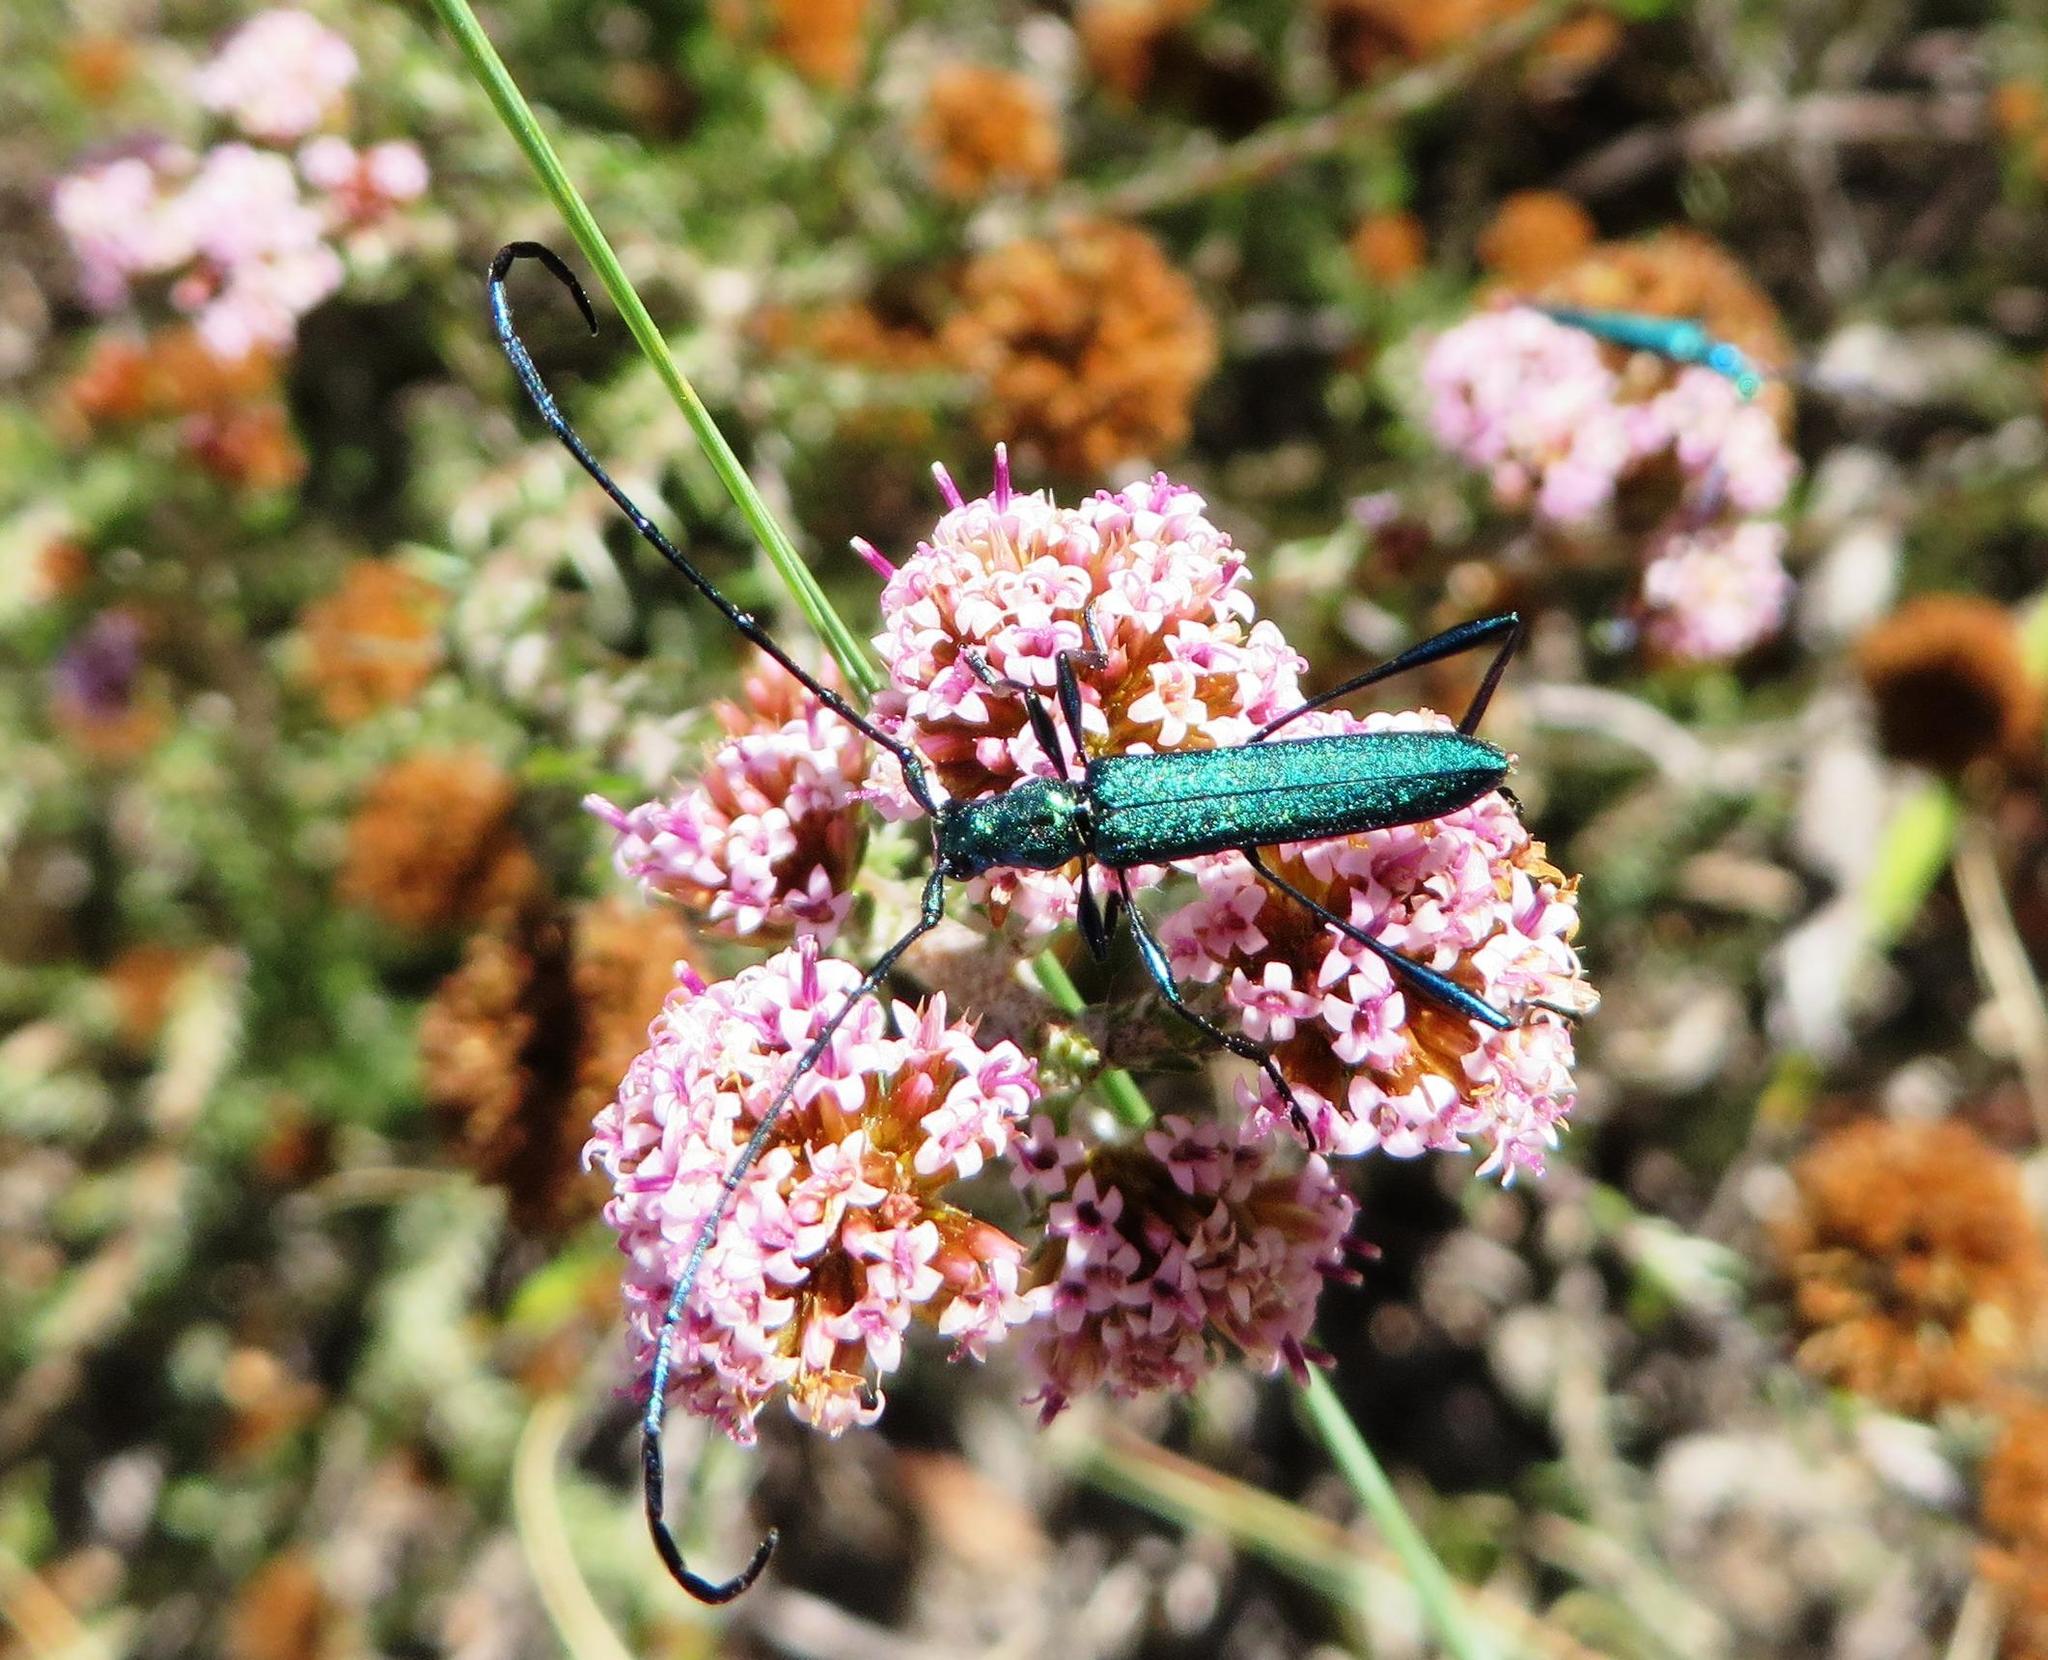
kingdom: Plantae
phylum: Tracheophyta
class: Magnoliopsida
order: Asterales
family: Asteraceae
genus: Stoebe
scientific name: Stoebe capitata
